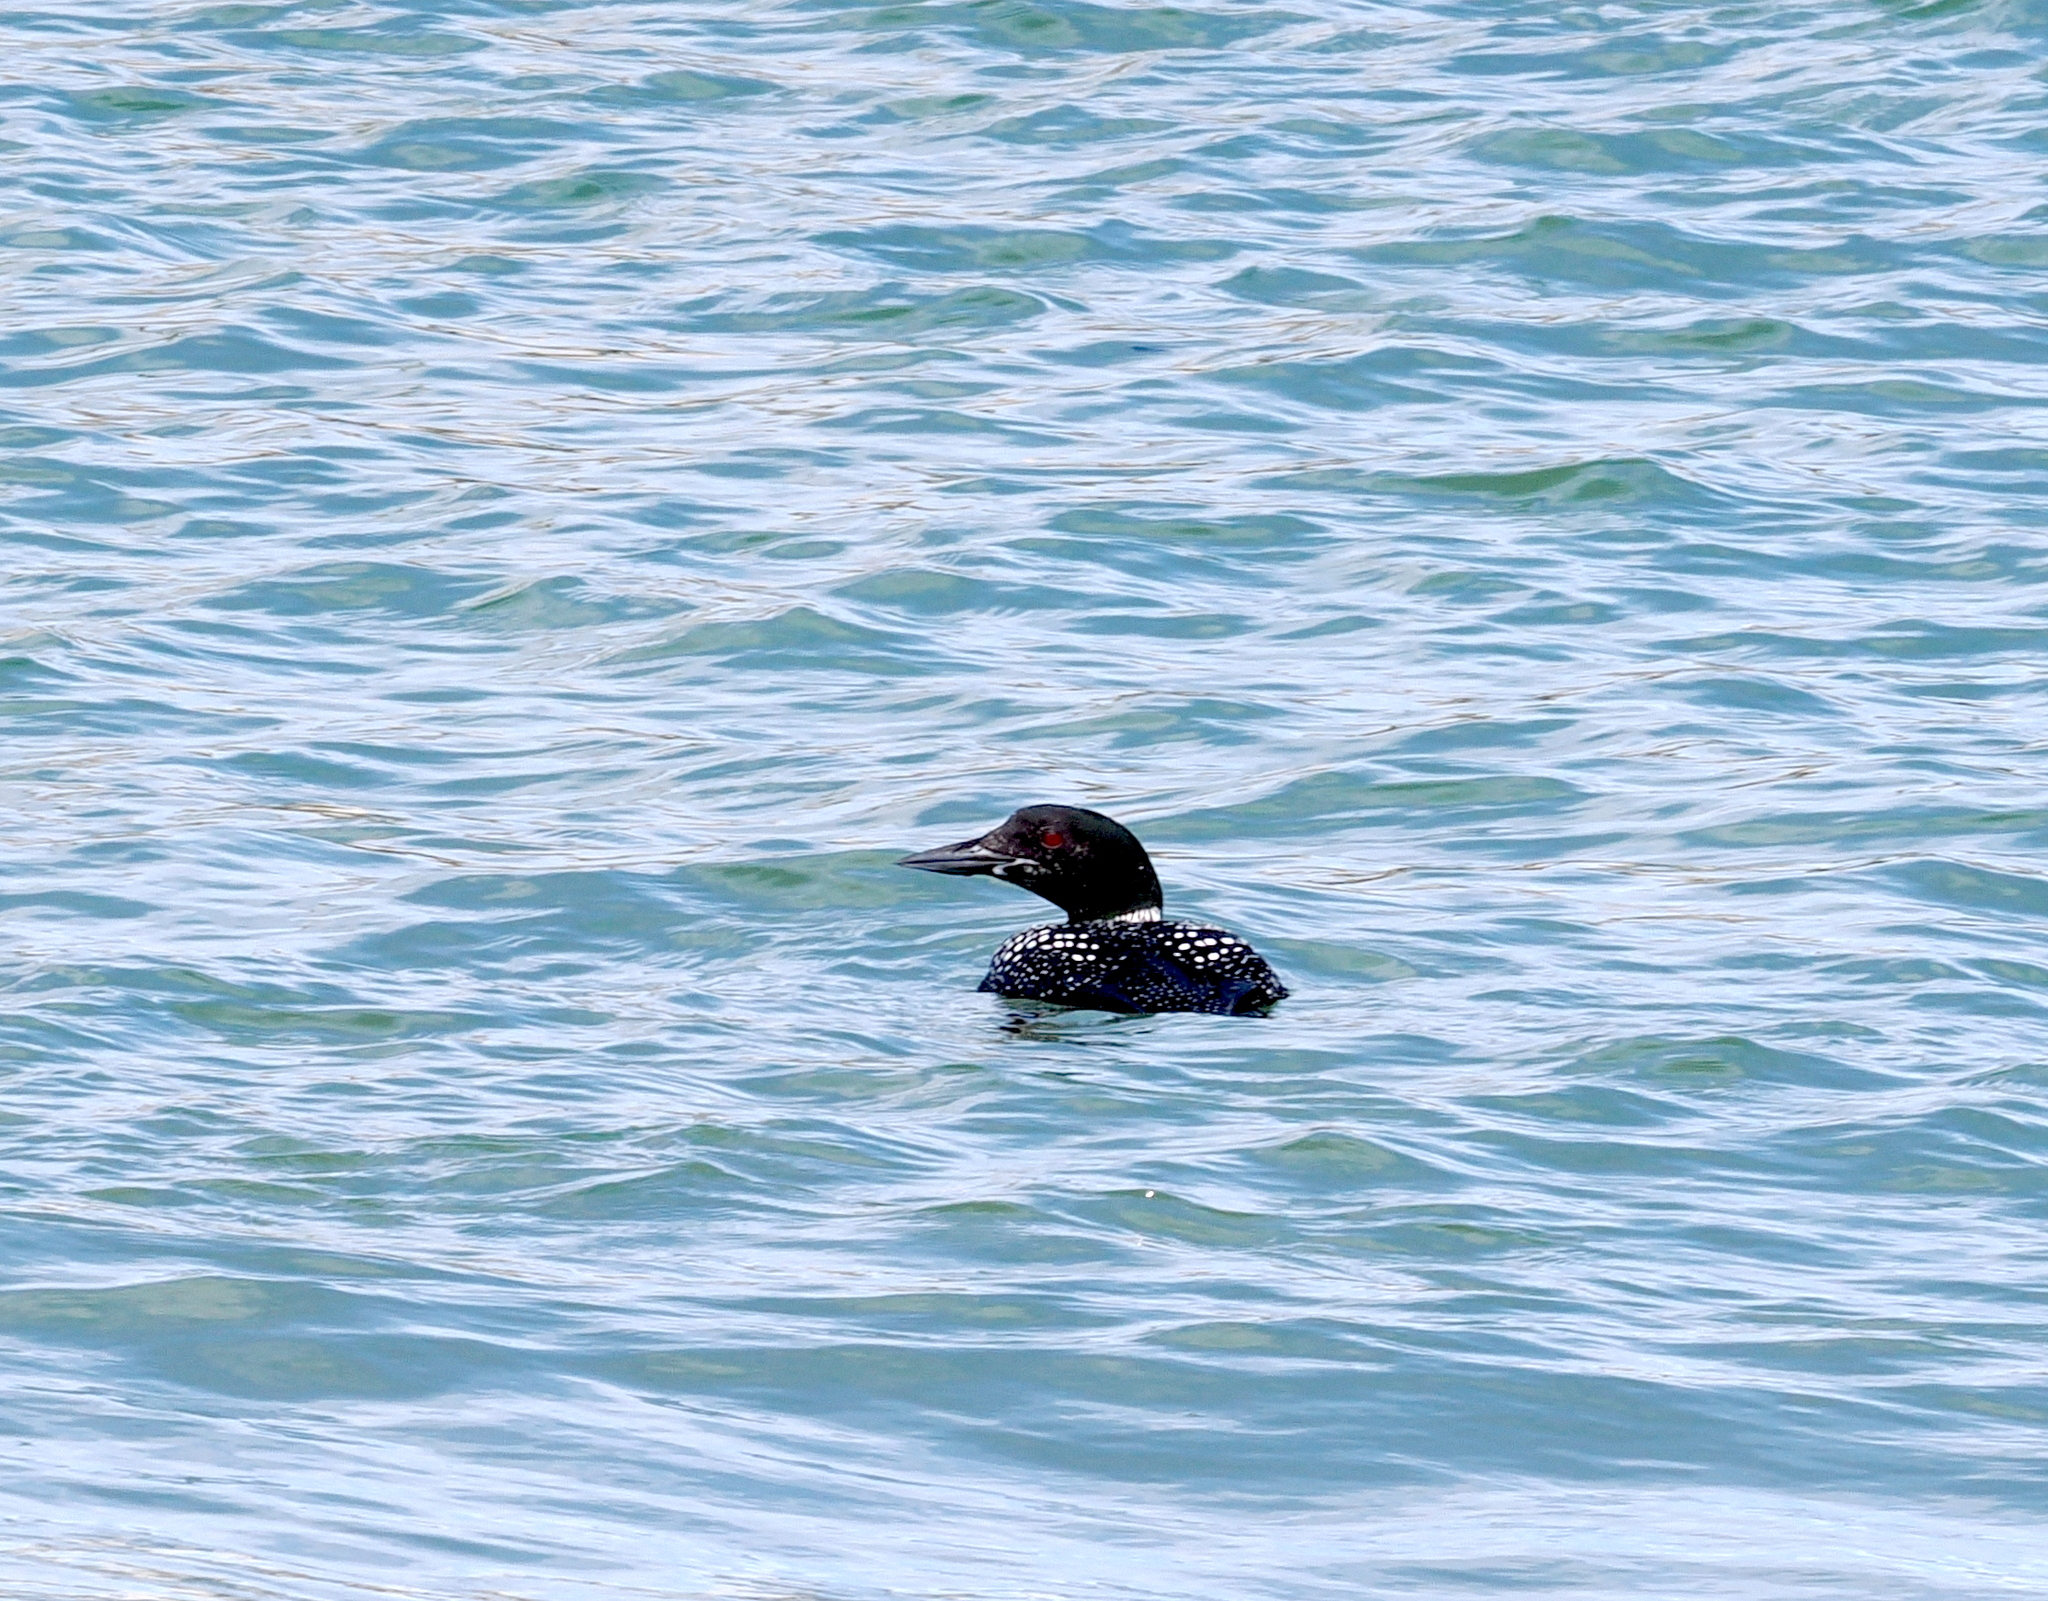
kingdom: Animalia
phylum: Chordata
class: Aves
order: Gaviiformes
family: Gaviidae
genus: Gavia
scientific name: Gavia immer
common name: Common loon
